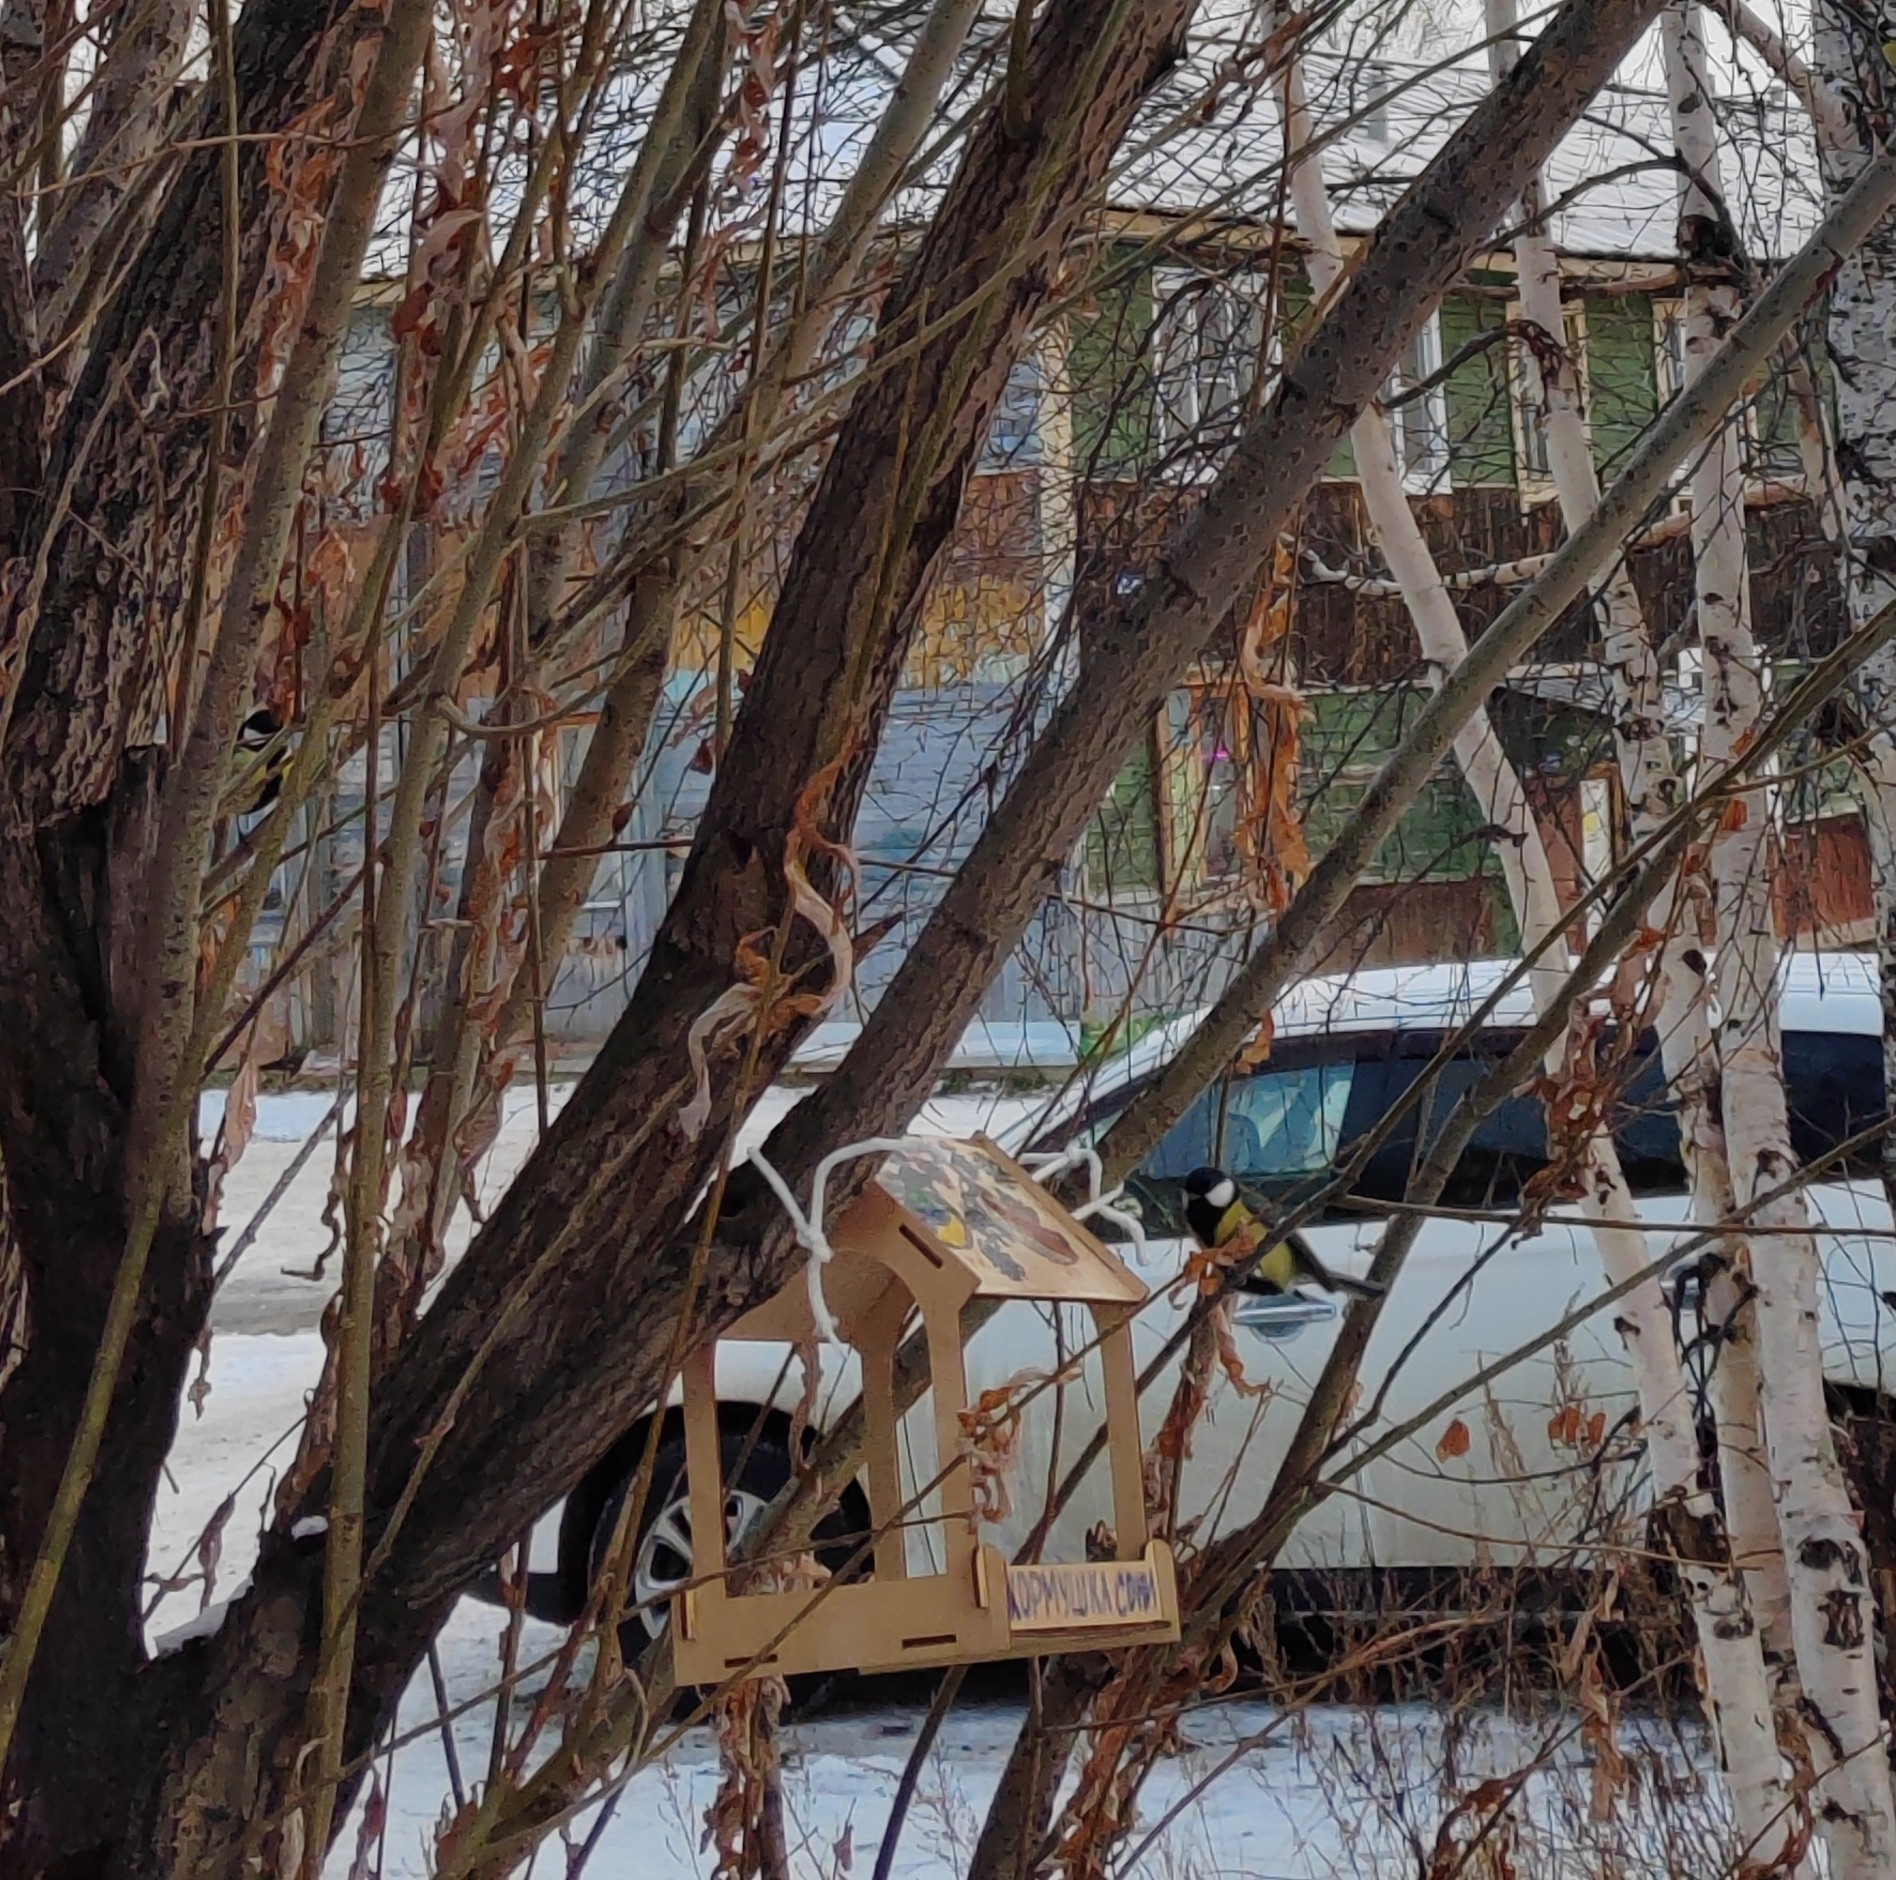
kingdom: Animalia
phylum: Chordata
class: Aves
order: Passeriformes
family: Paridae
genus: Parus
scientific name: Parus major
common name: Great tit
